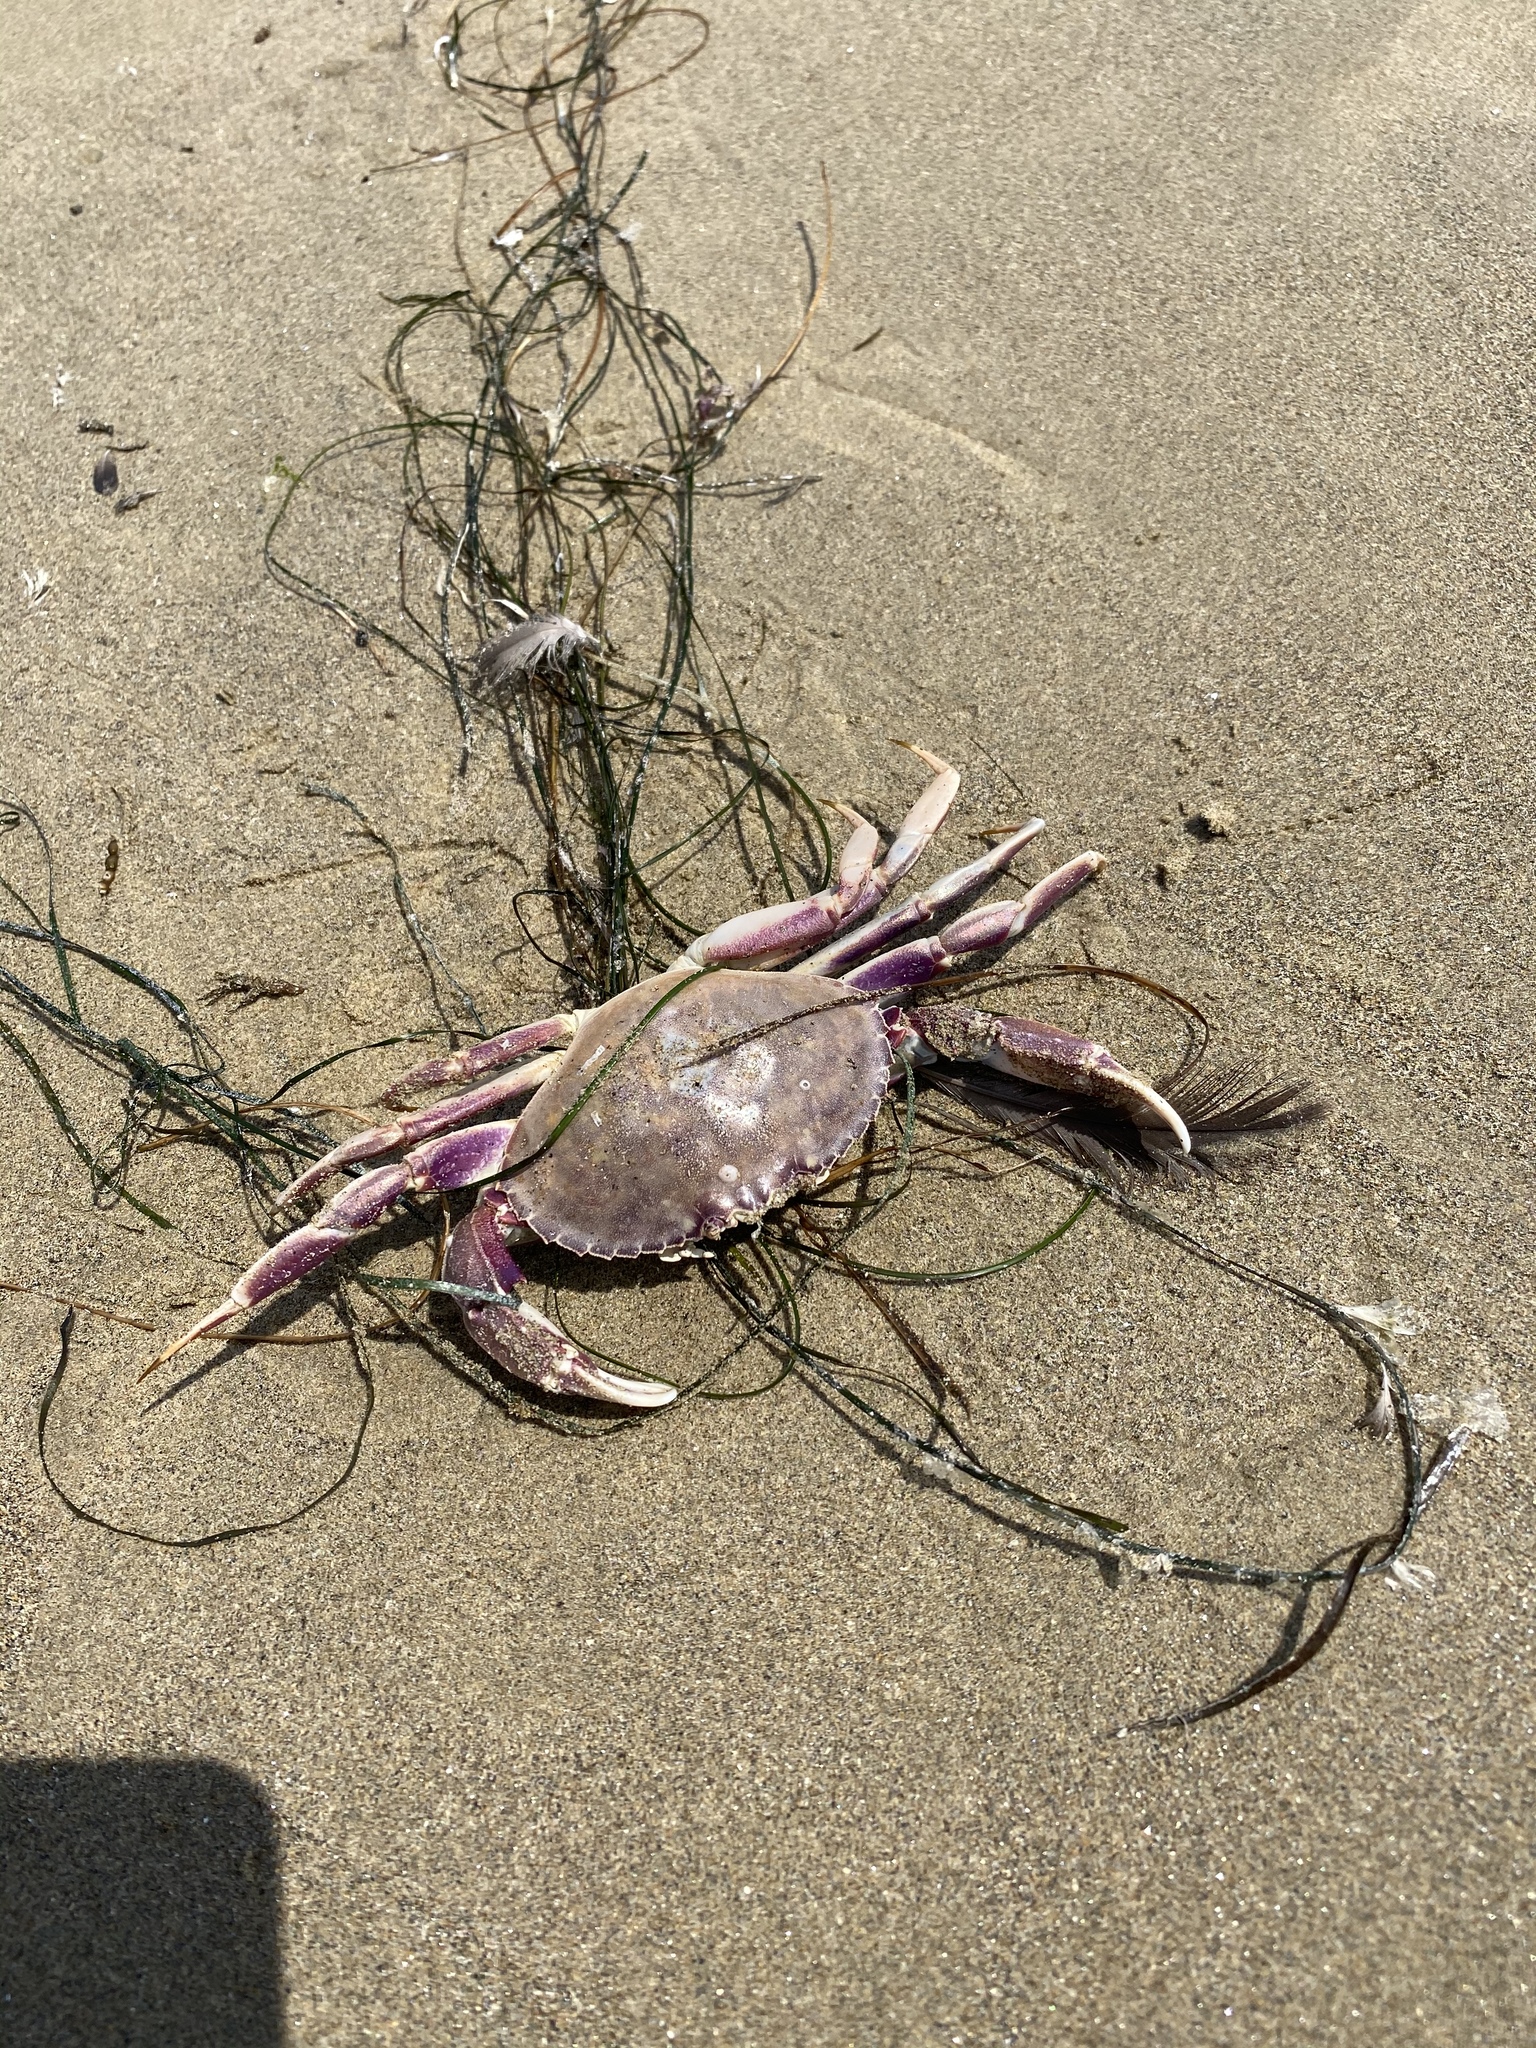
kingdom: Animalia
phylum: Arthropoda
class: Malacostraca
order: Decapoda
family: Cancridae
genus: Metacarcinus
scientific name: Metacarcinus gracilis
